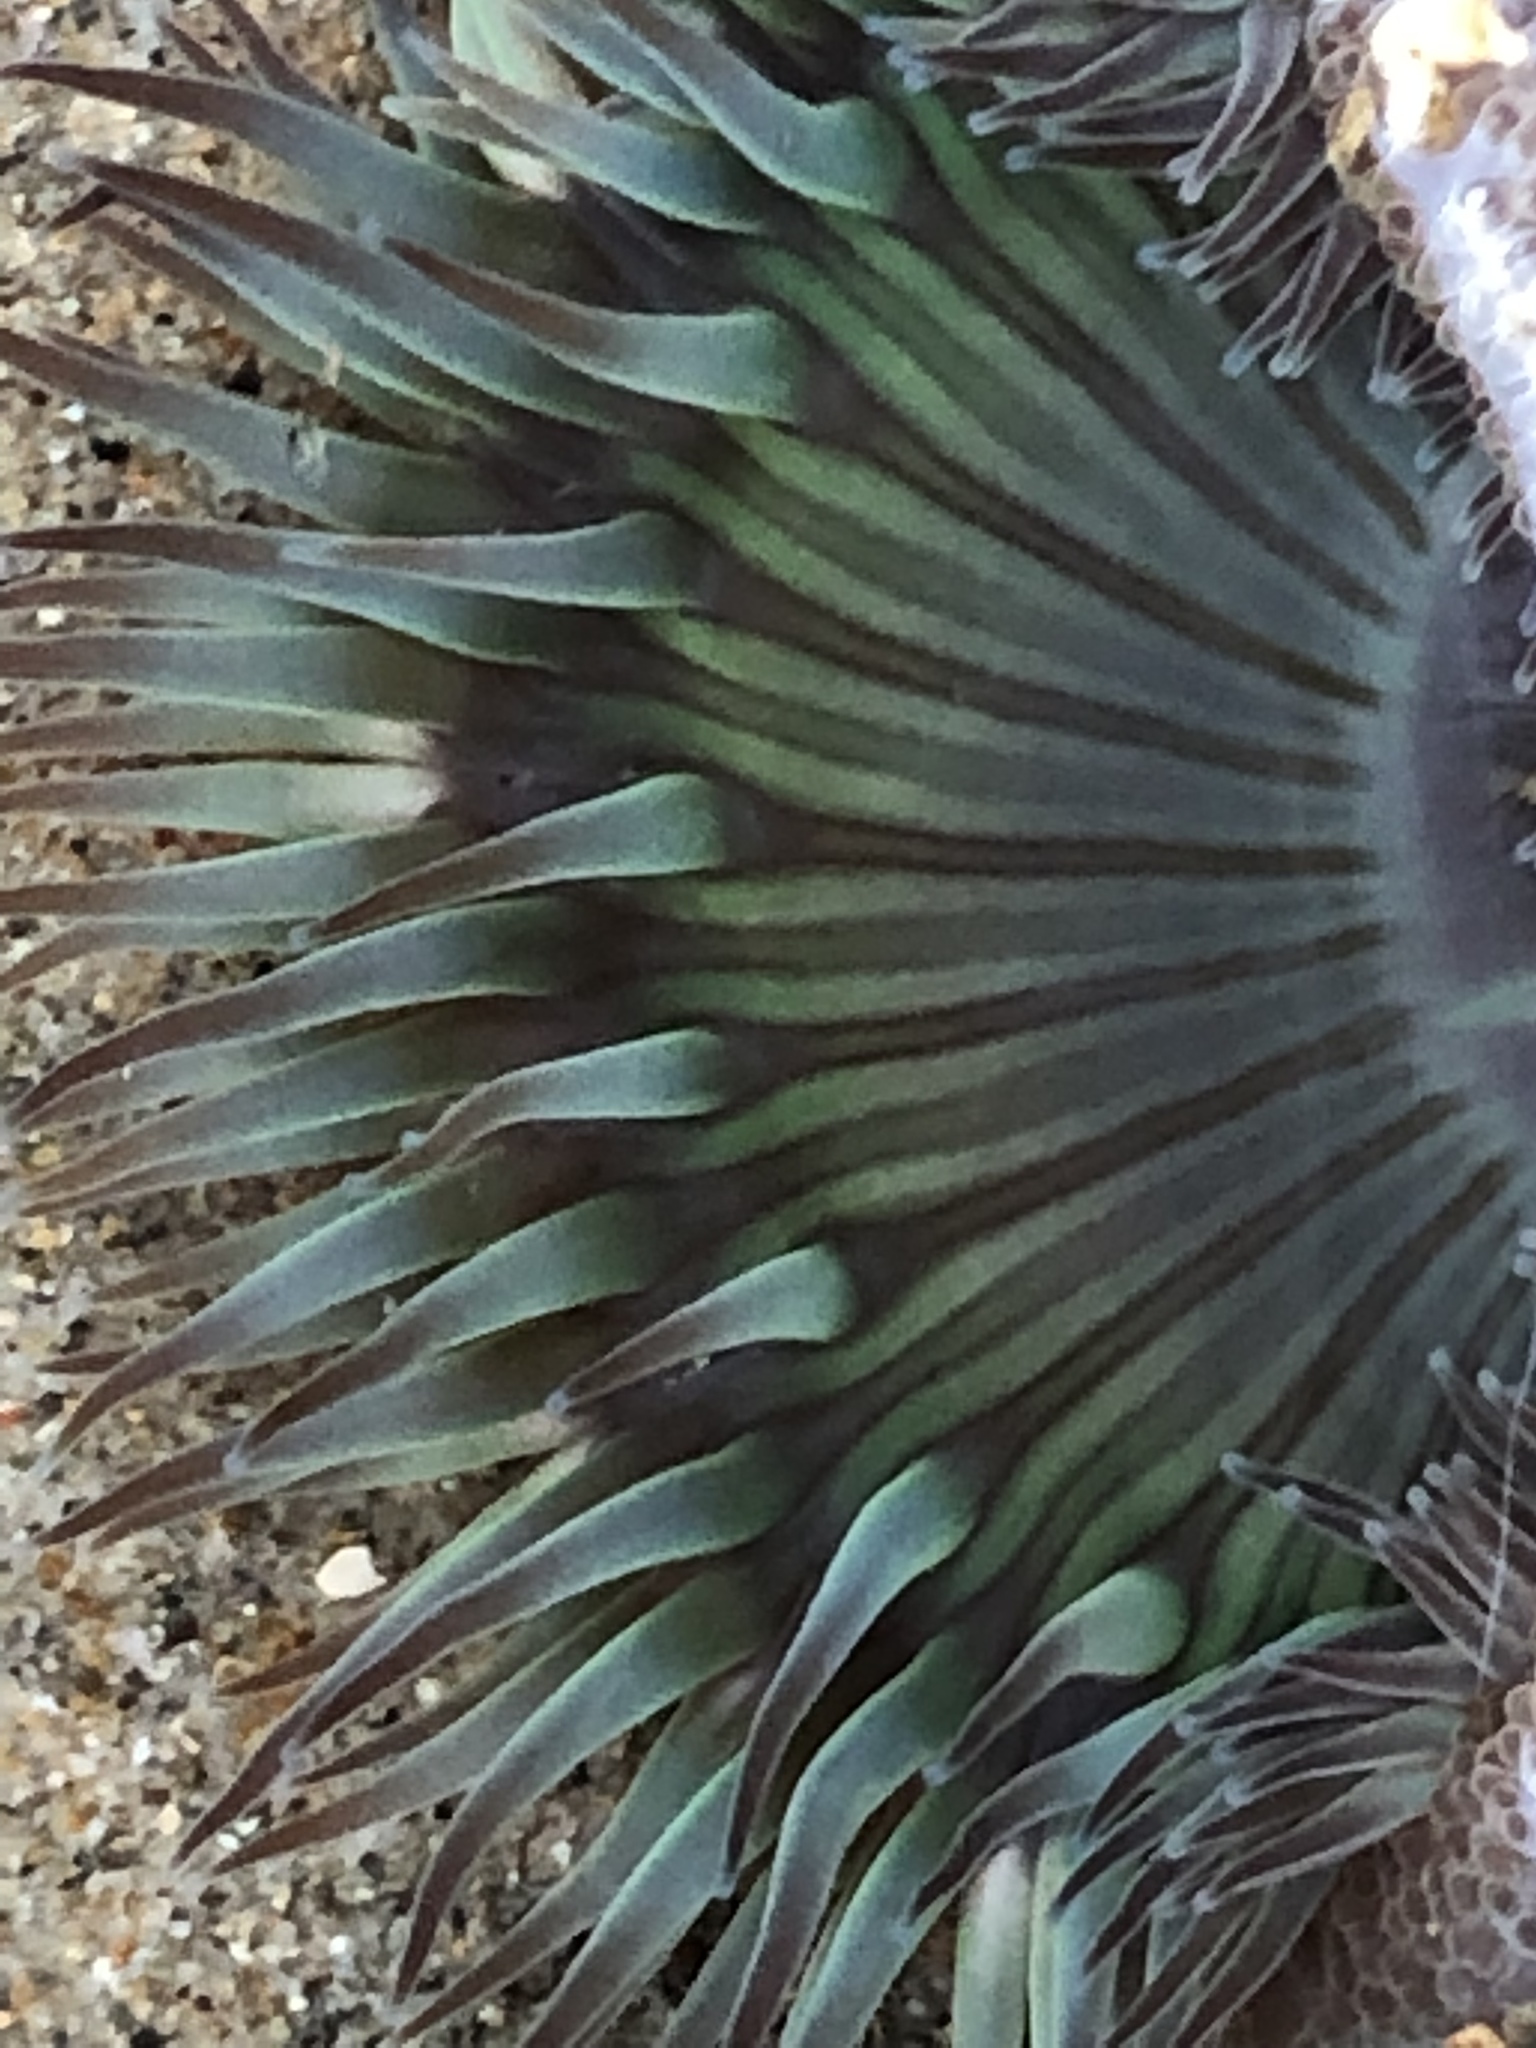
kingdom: Animalia
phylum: Cnidaria
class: Anthozoa
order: Actiniaria
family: Actiniidae
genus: Anthopleura
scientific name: Anthopleura sola
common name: Sun anemone
